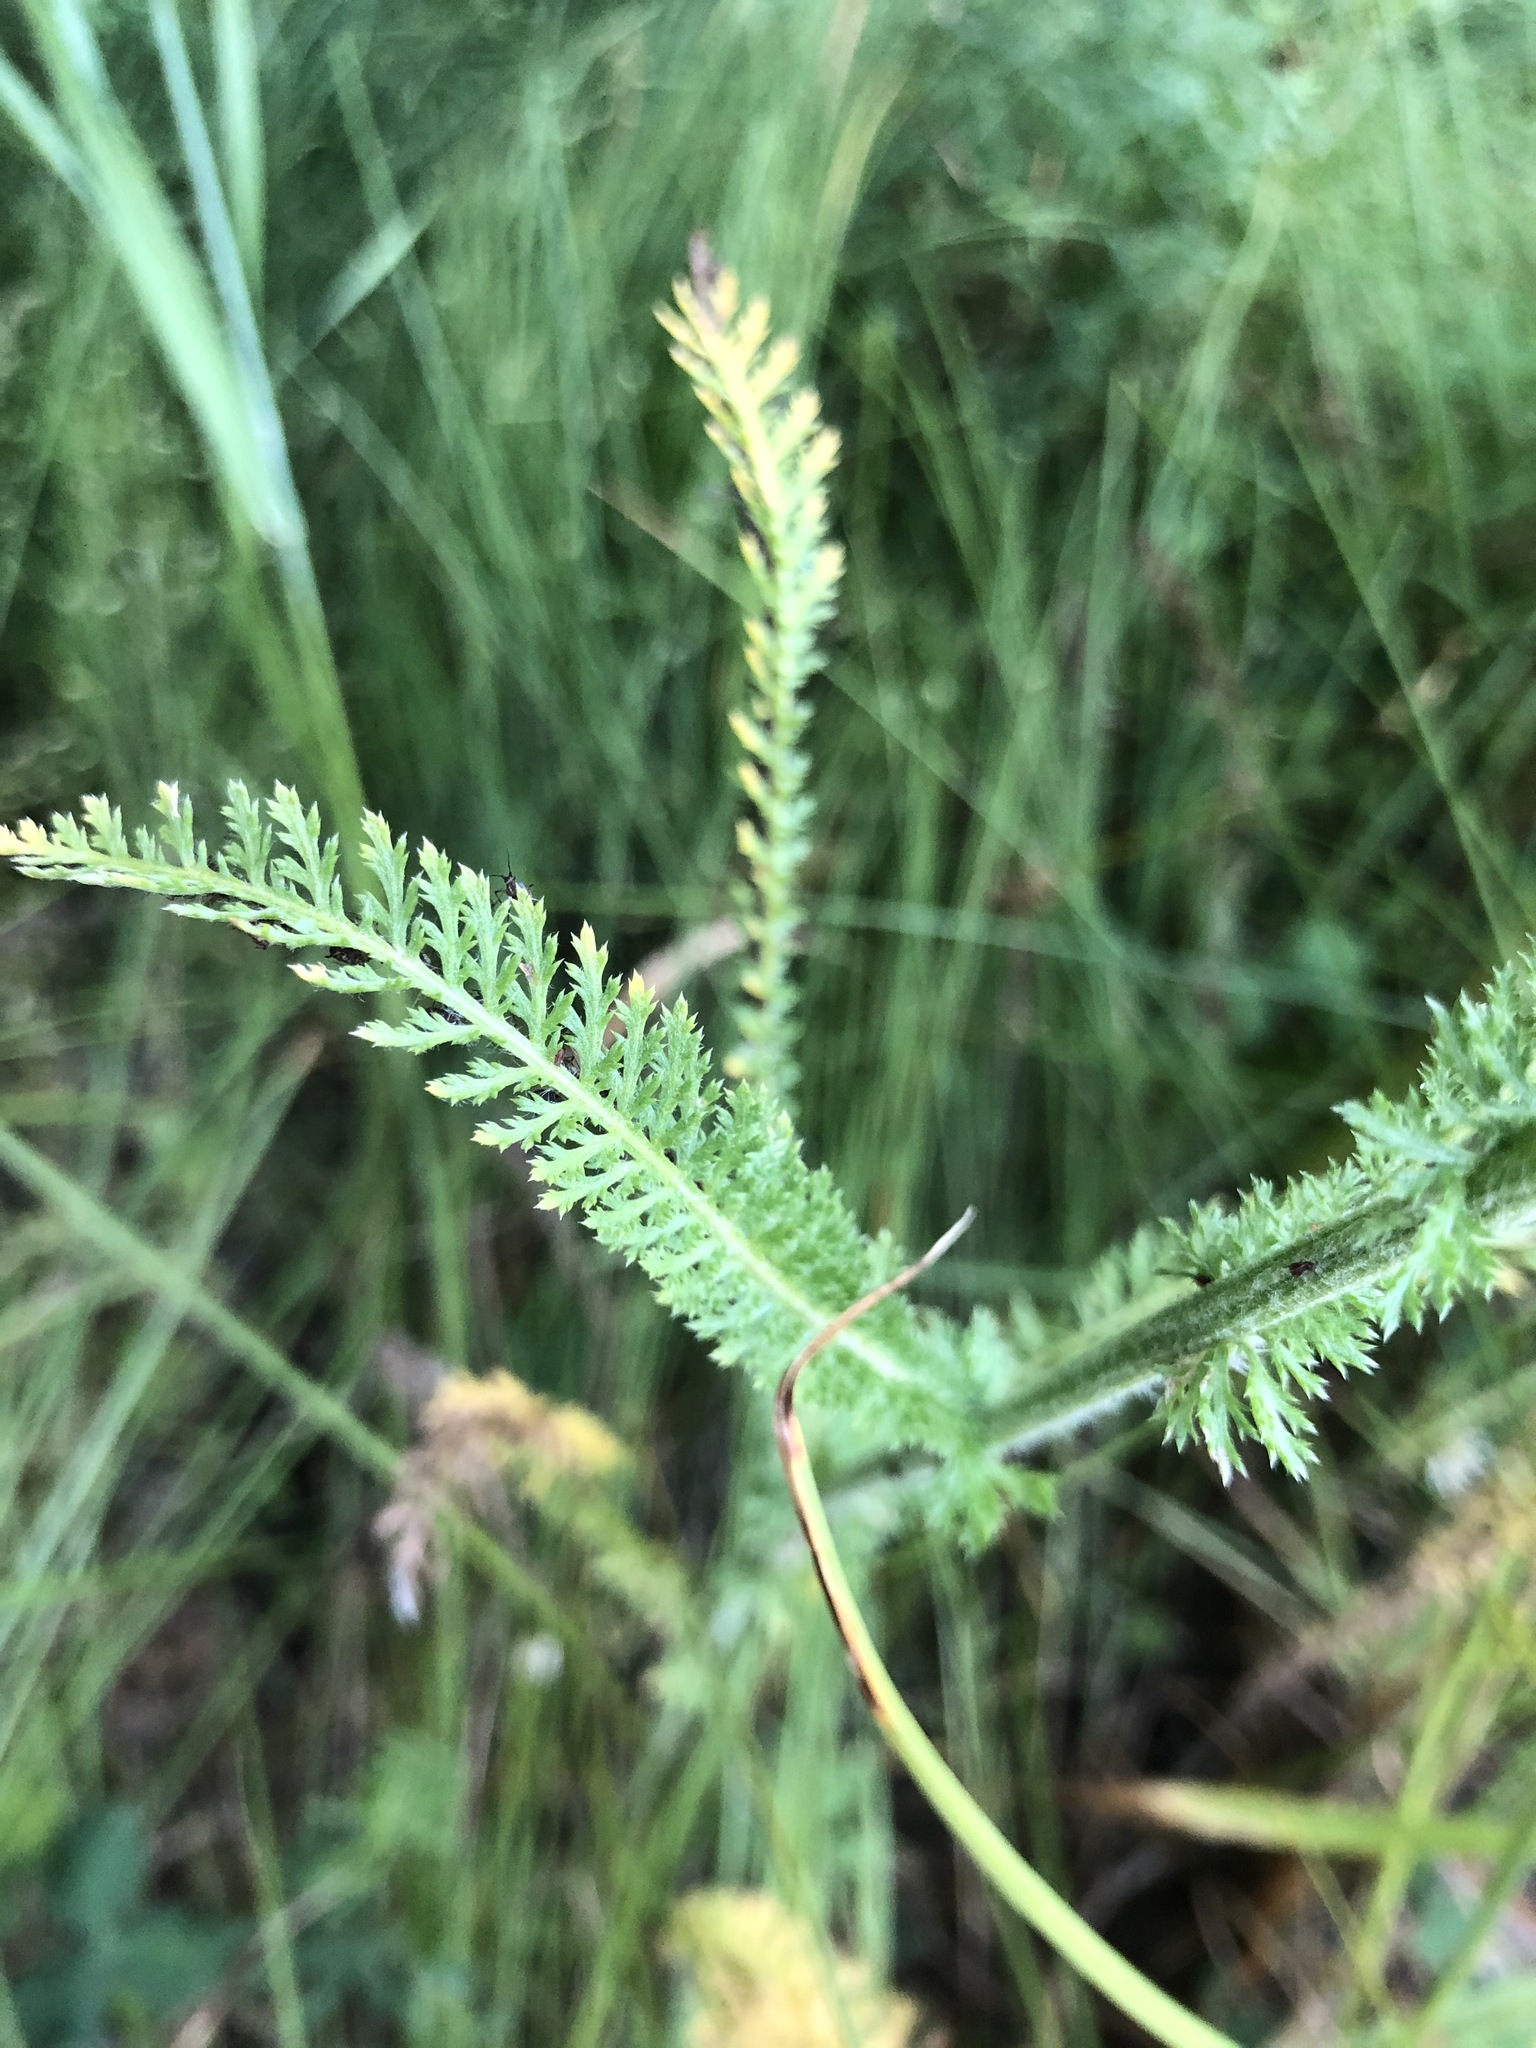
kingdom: Plantae
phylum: Tracheophyta
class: Magnoliopsida
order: Asterales
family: Asteraceae
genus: Achillea
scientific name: Achillea millefolium
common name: Yarrow
